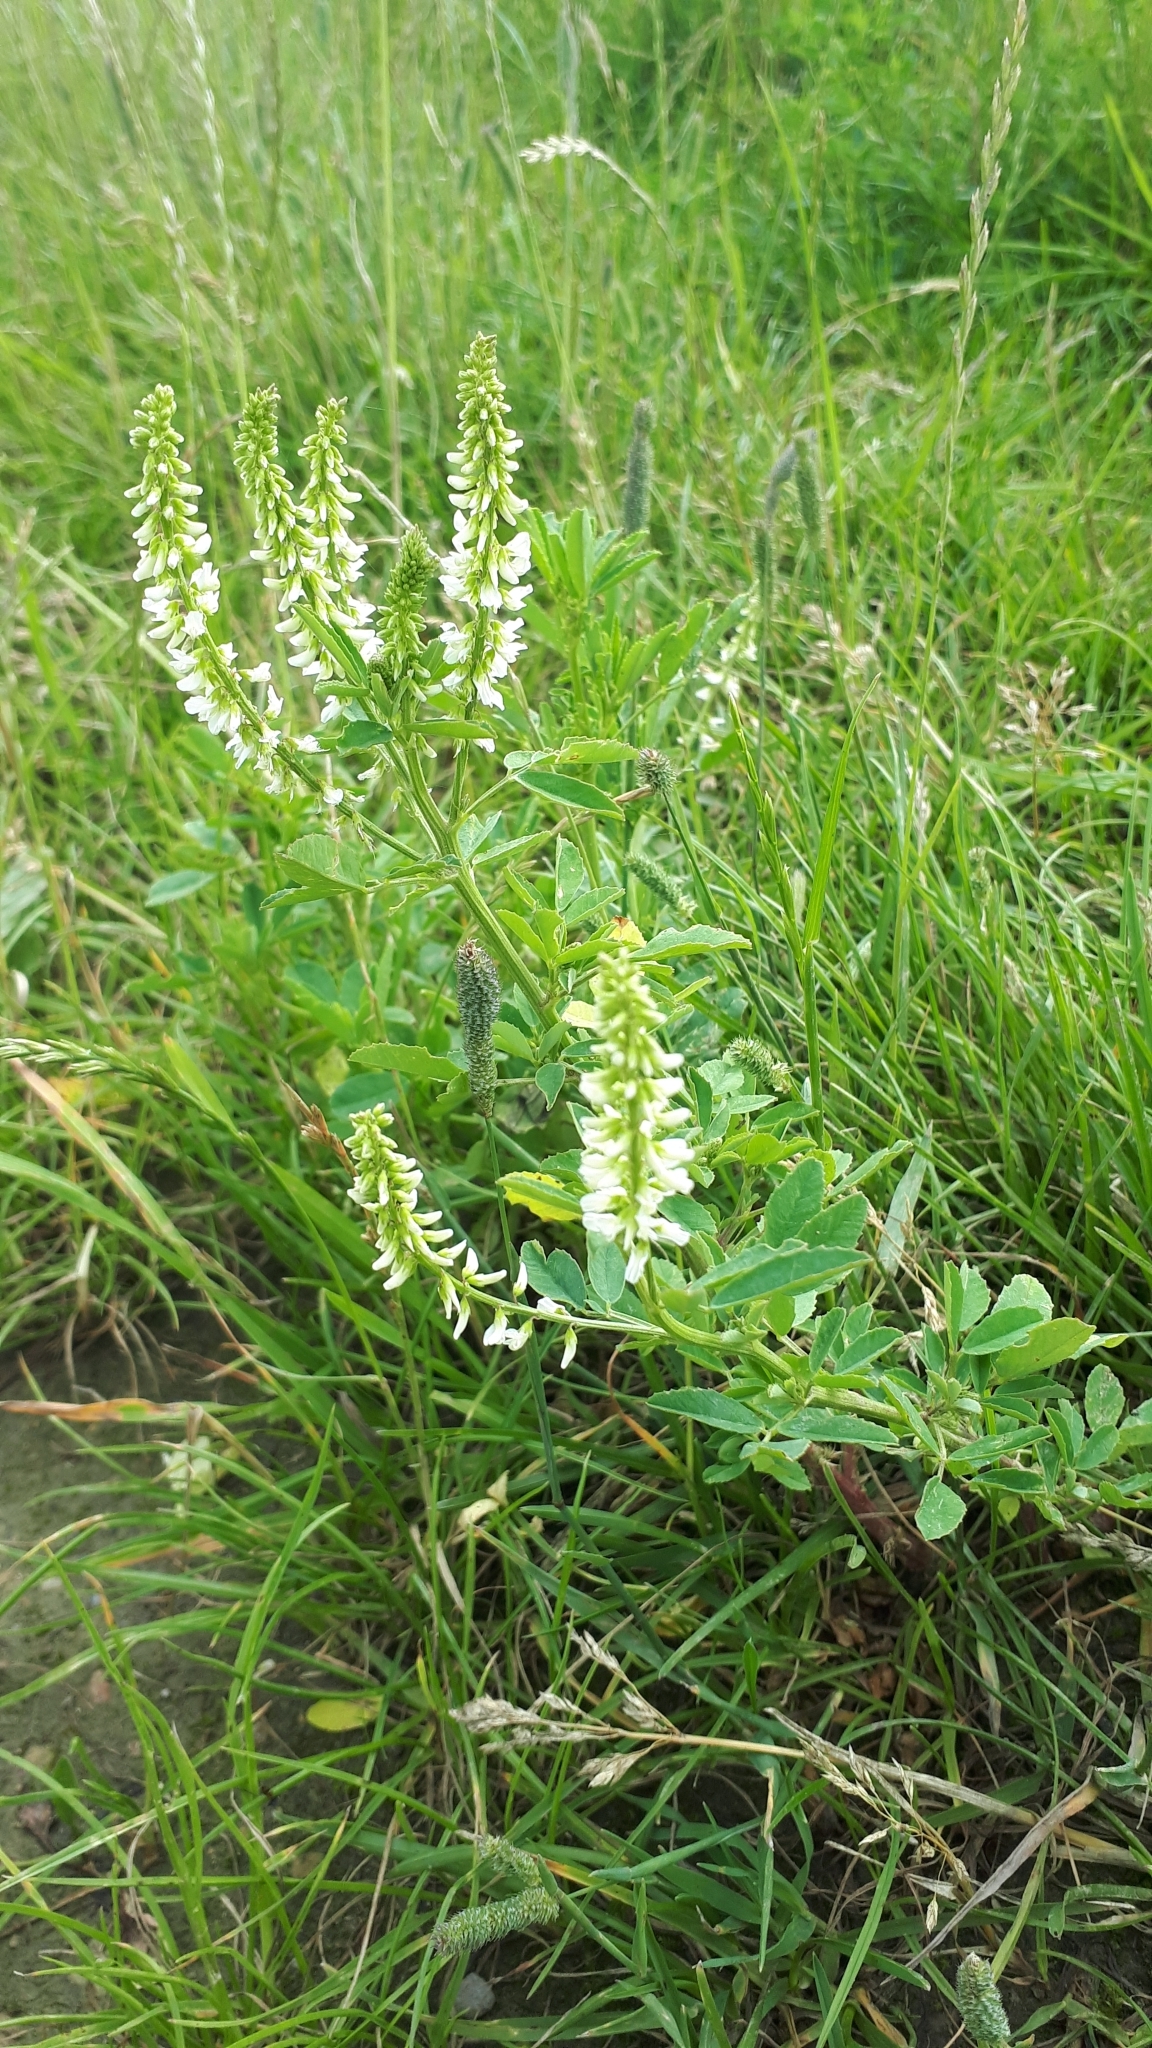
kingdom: Plantae
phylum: Tracheophyta
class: Magnoliopsida
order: Fabales
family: Fabaceae
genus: Melilotus
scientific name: Melilotus albus
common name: White melilot
